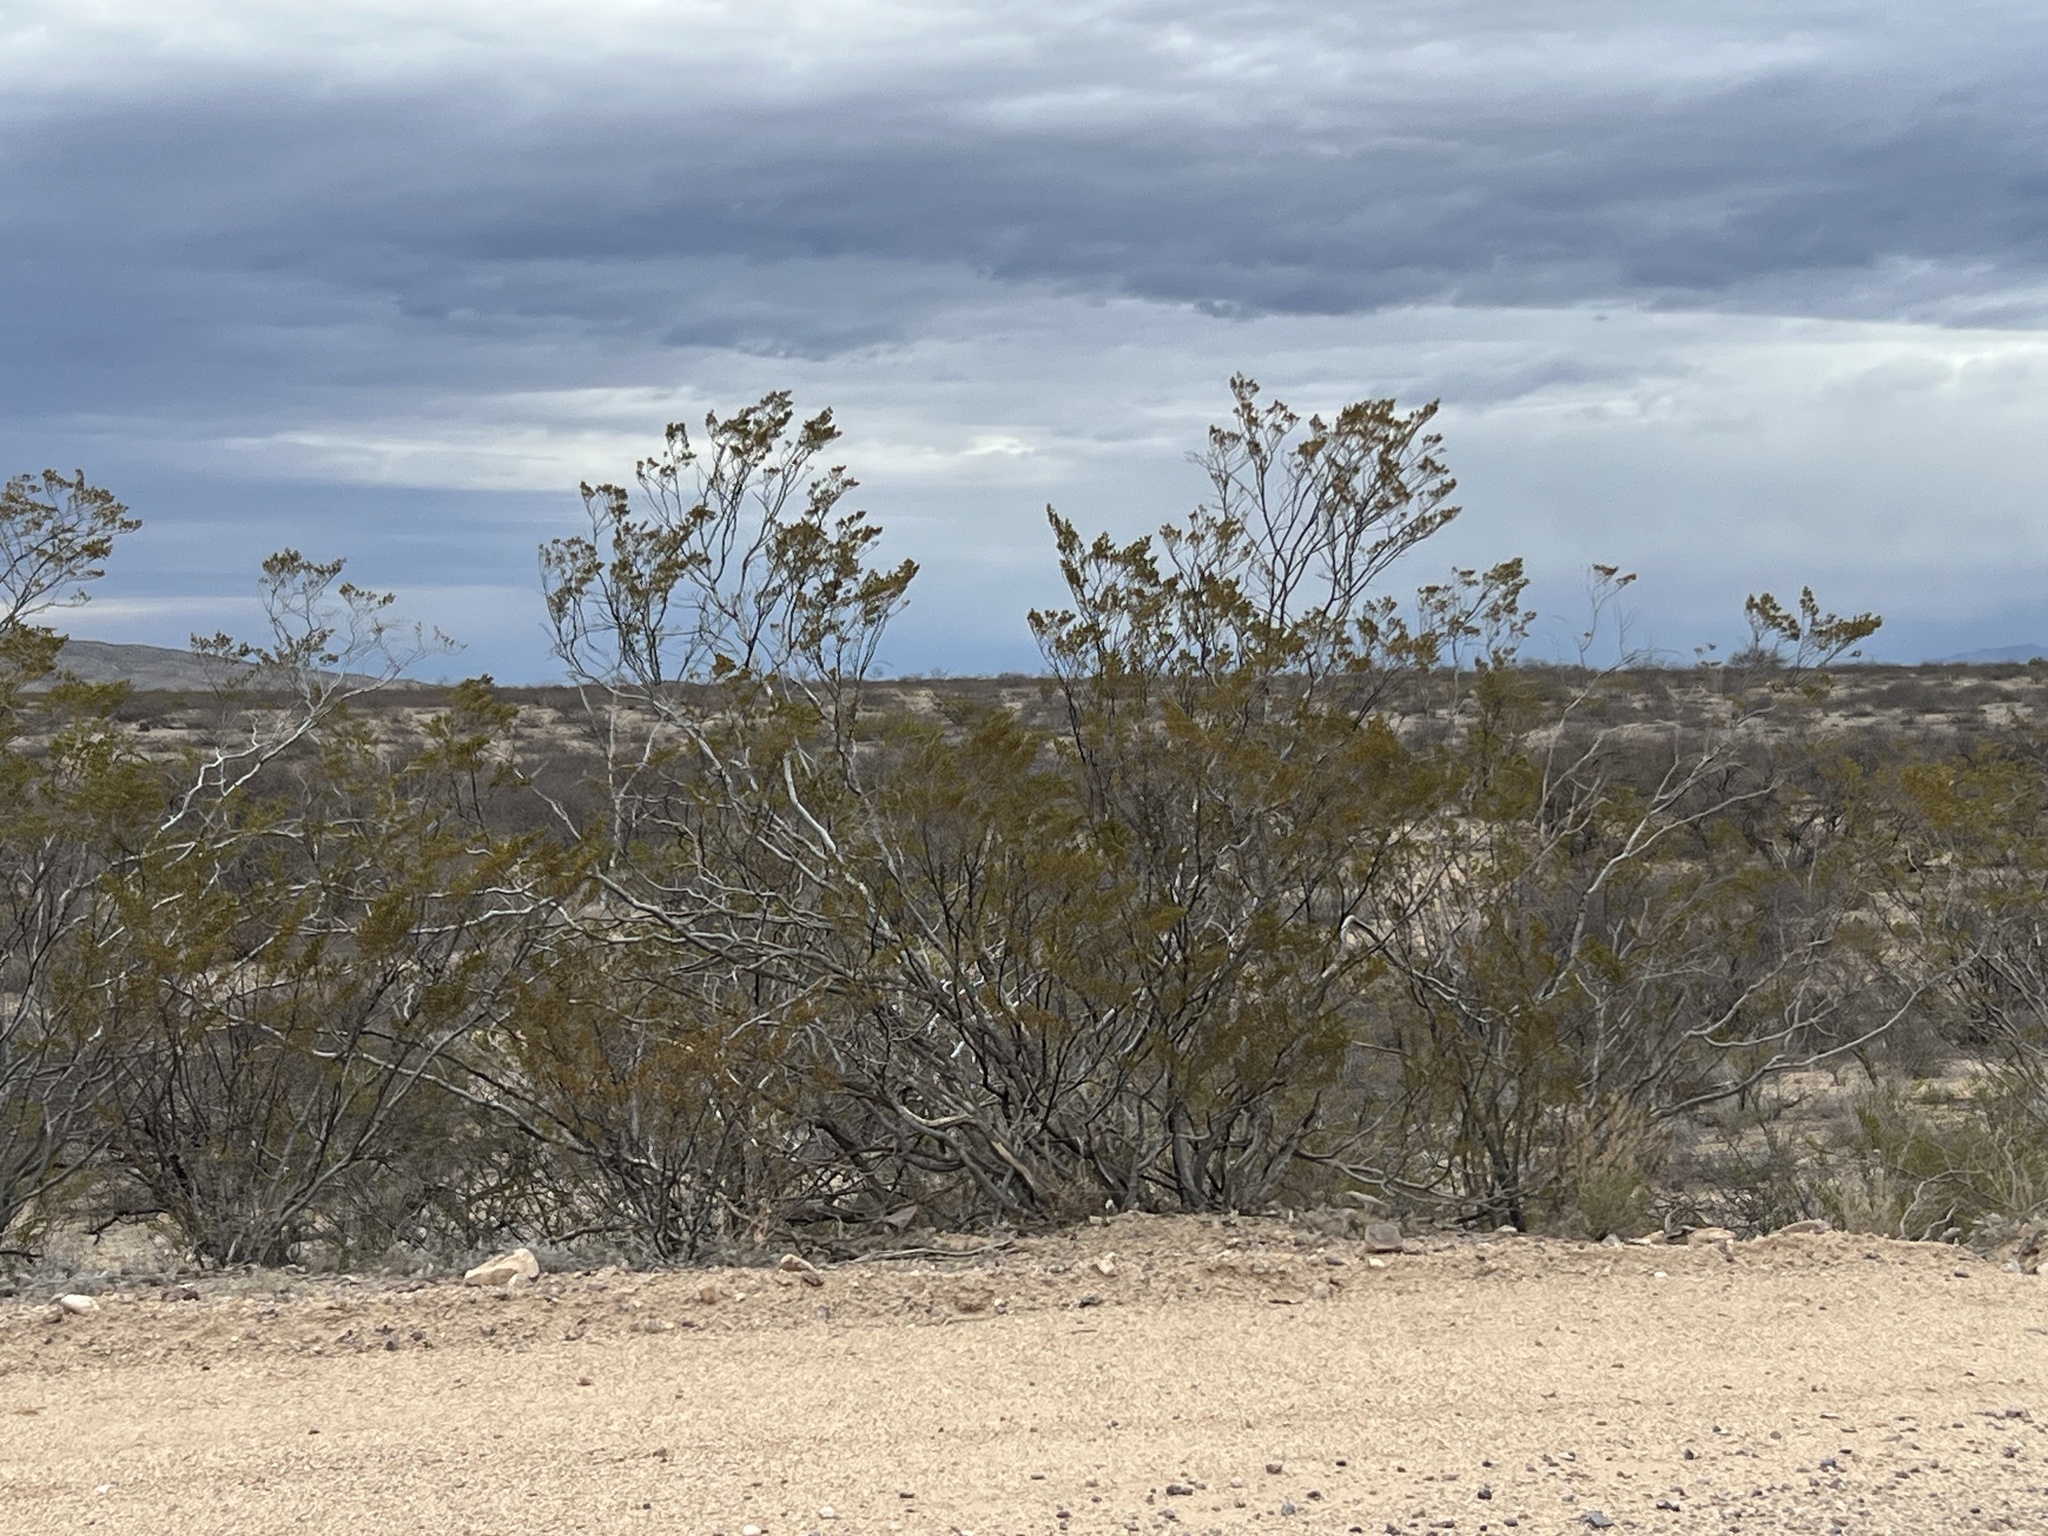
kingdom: Plantae
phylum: Tracheophyta
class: Magnoliopsida
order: Zygophyllales
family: Zygophyllaceae
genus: Larrea
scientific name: Larrea tridentata
